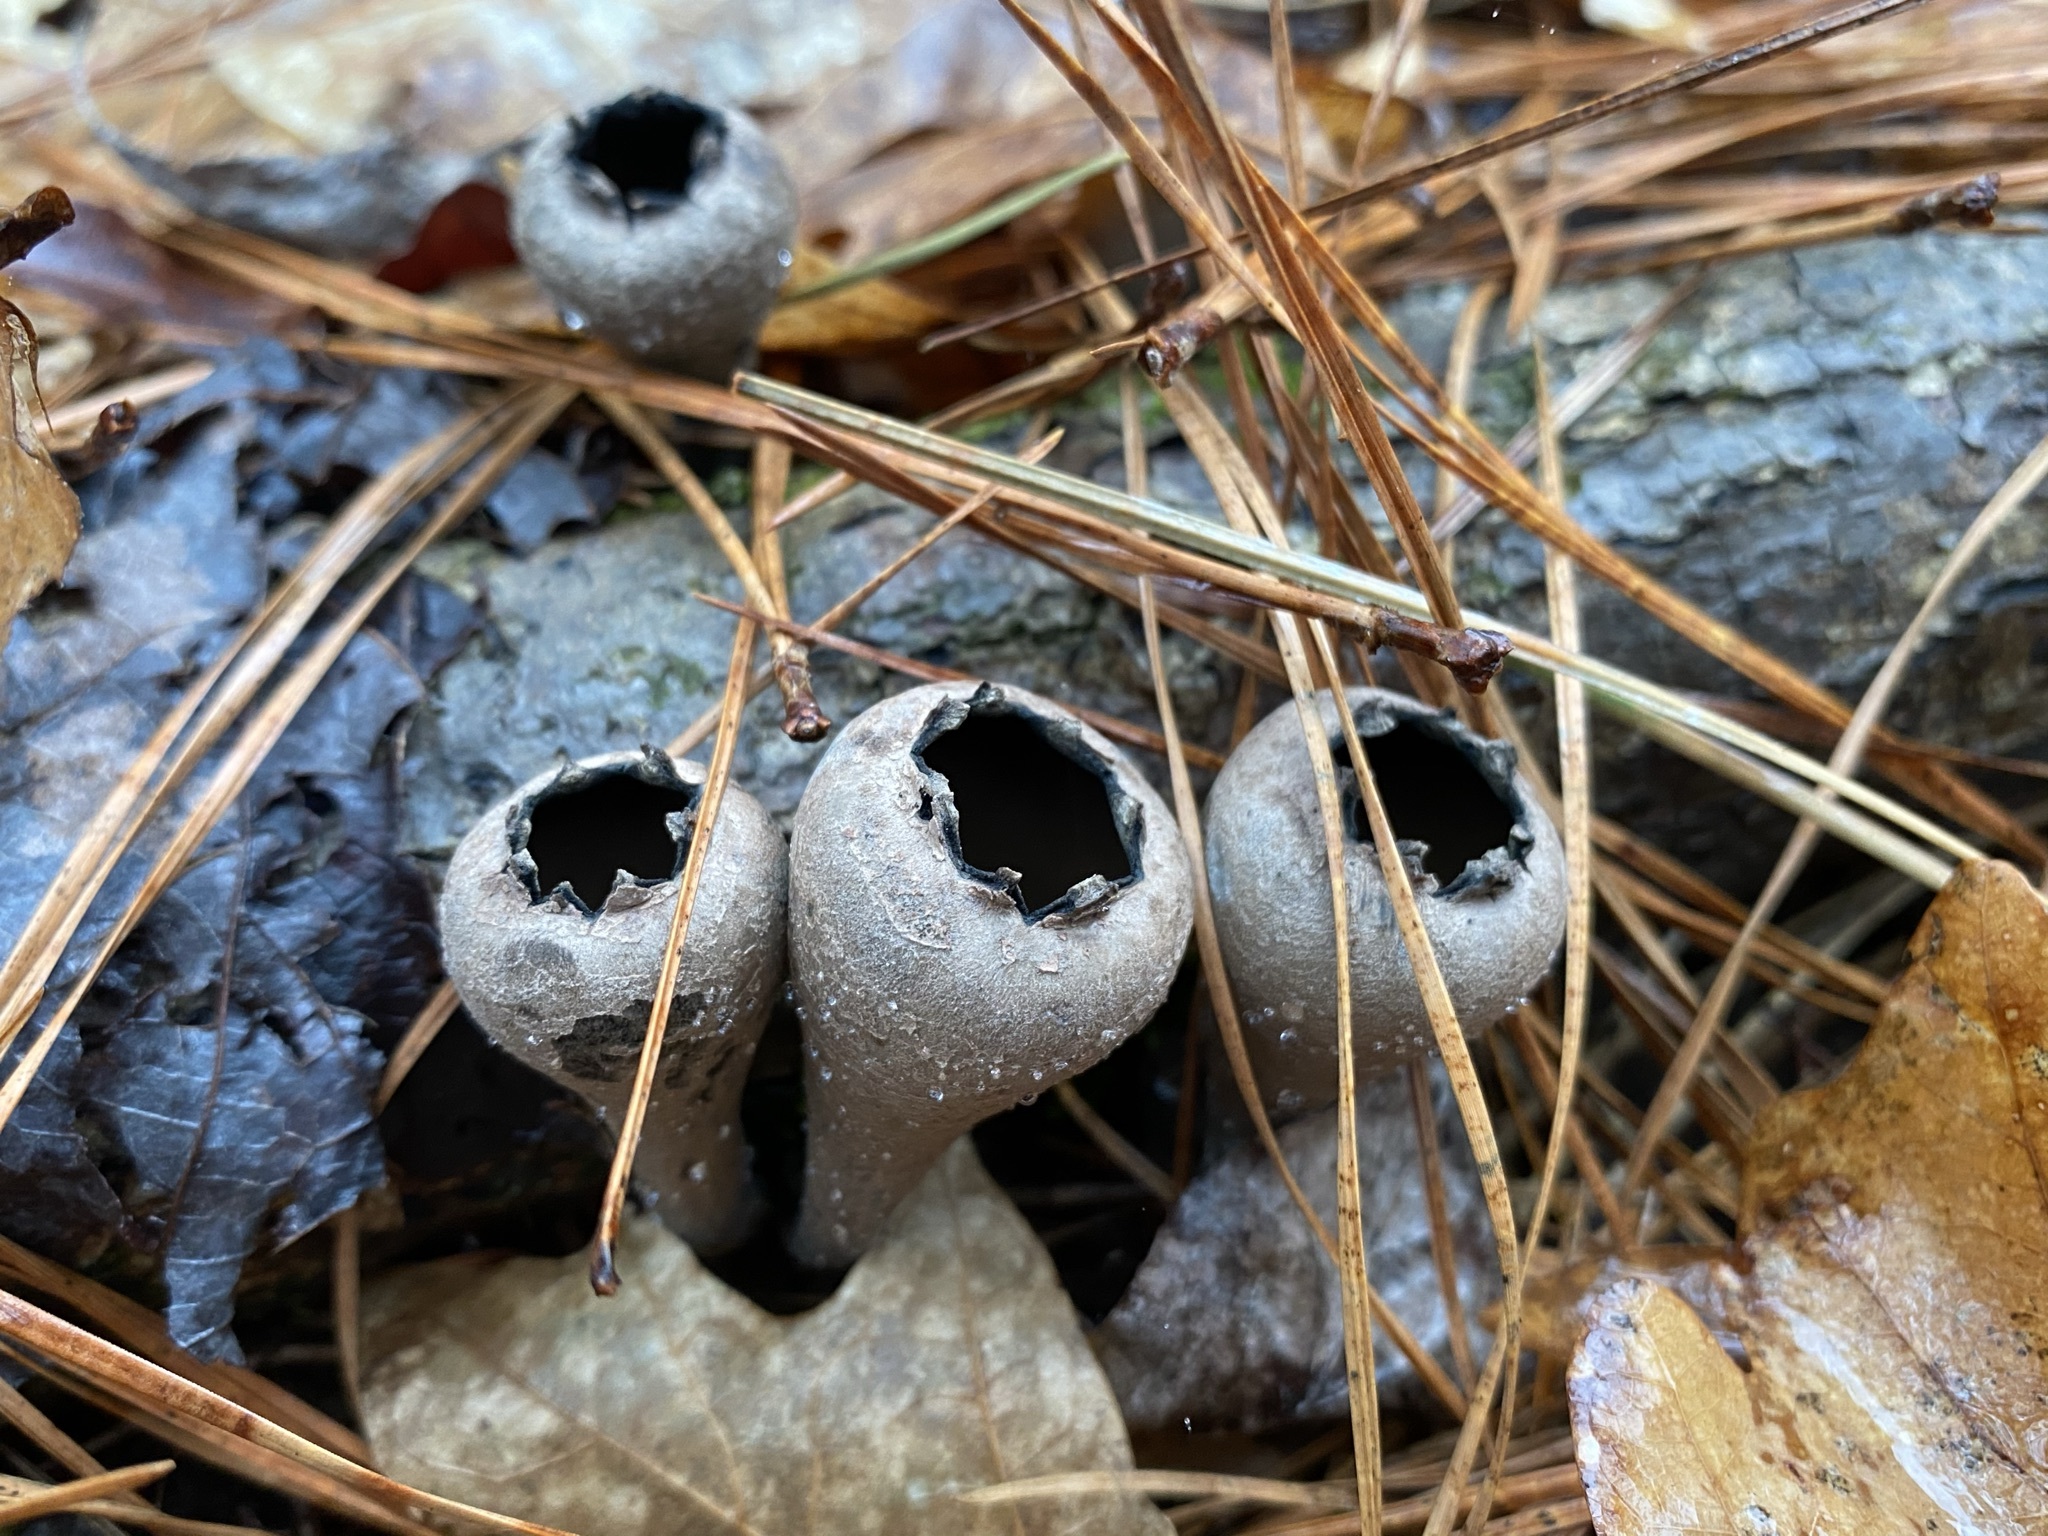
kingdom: Fungi
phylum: Ascomycota
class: Pezizomycetes
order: Pezizales
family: Sarcosomataceae
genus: Urnula
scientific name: Urnula craterium
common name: Devil's urn
